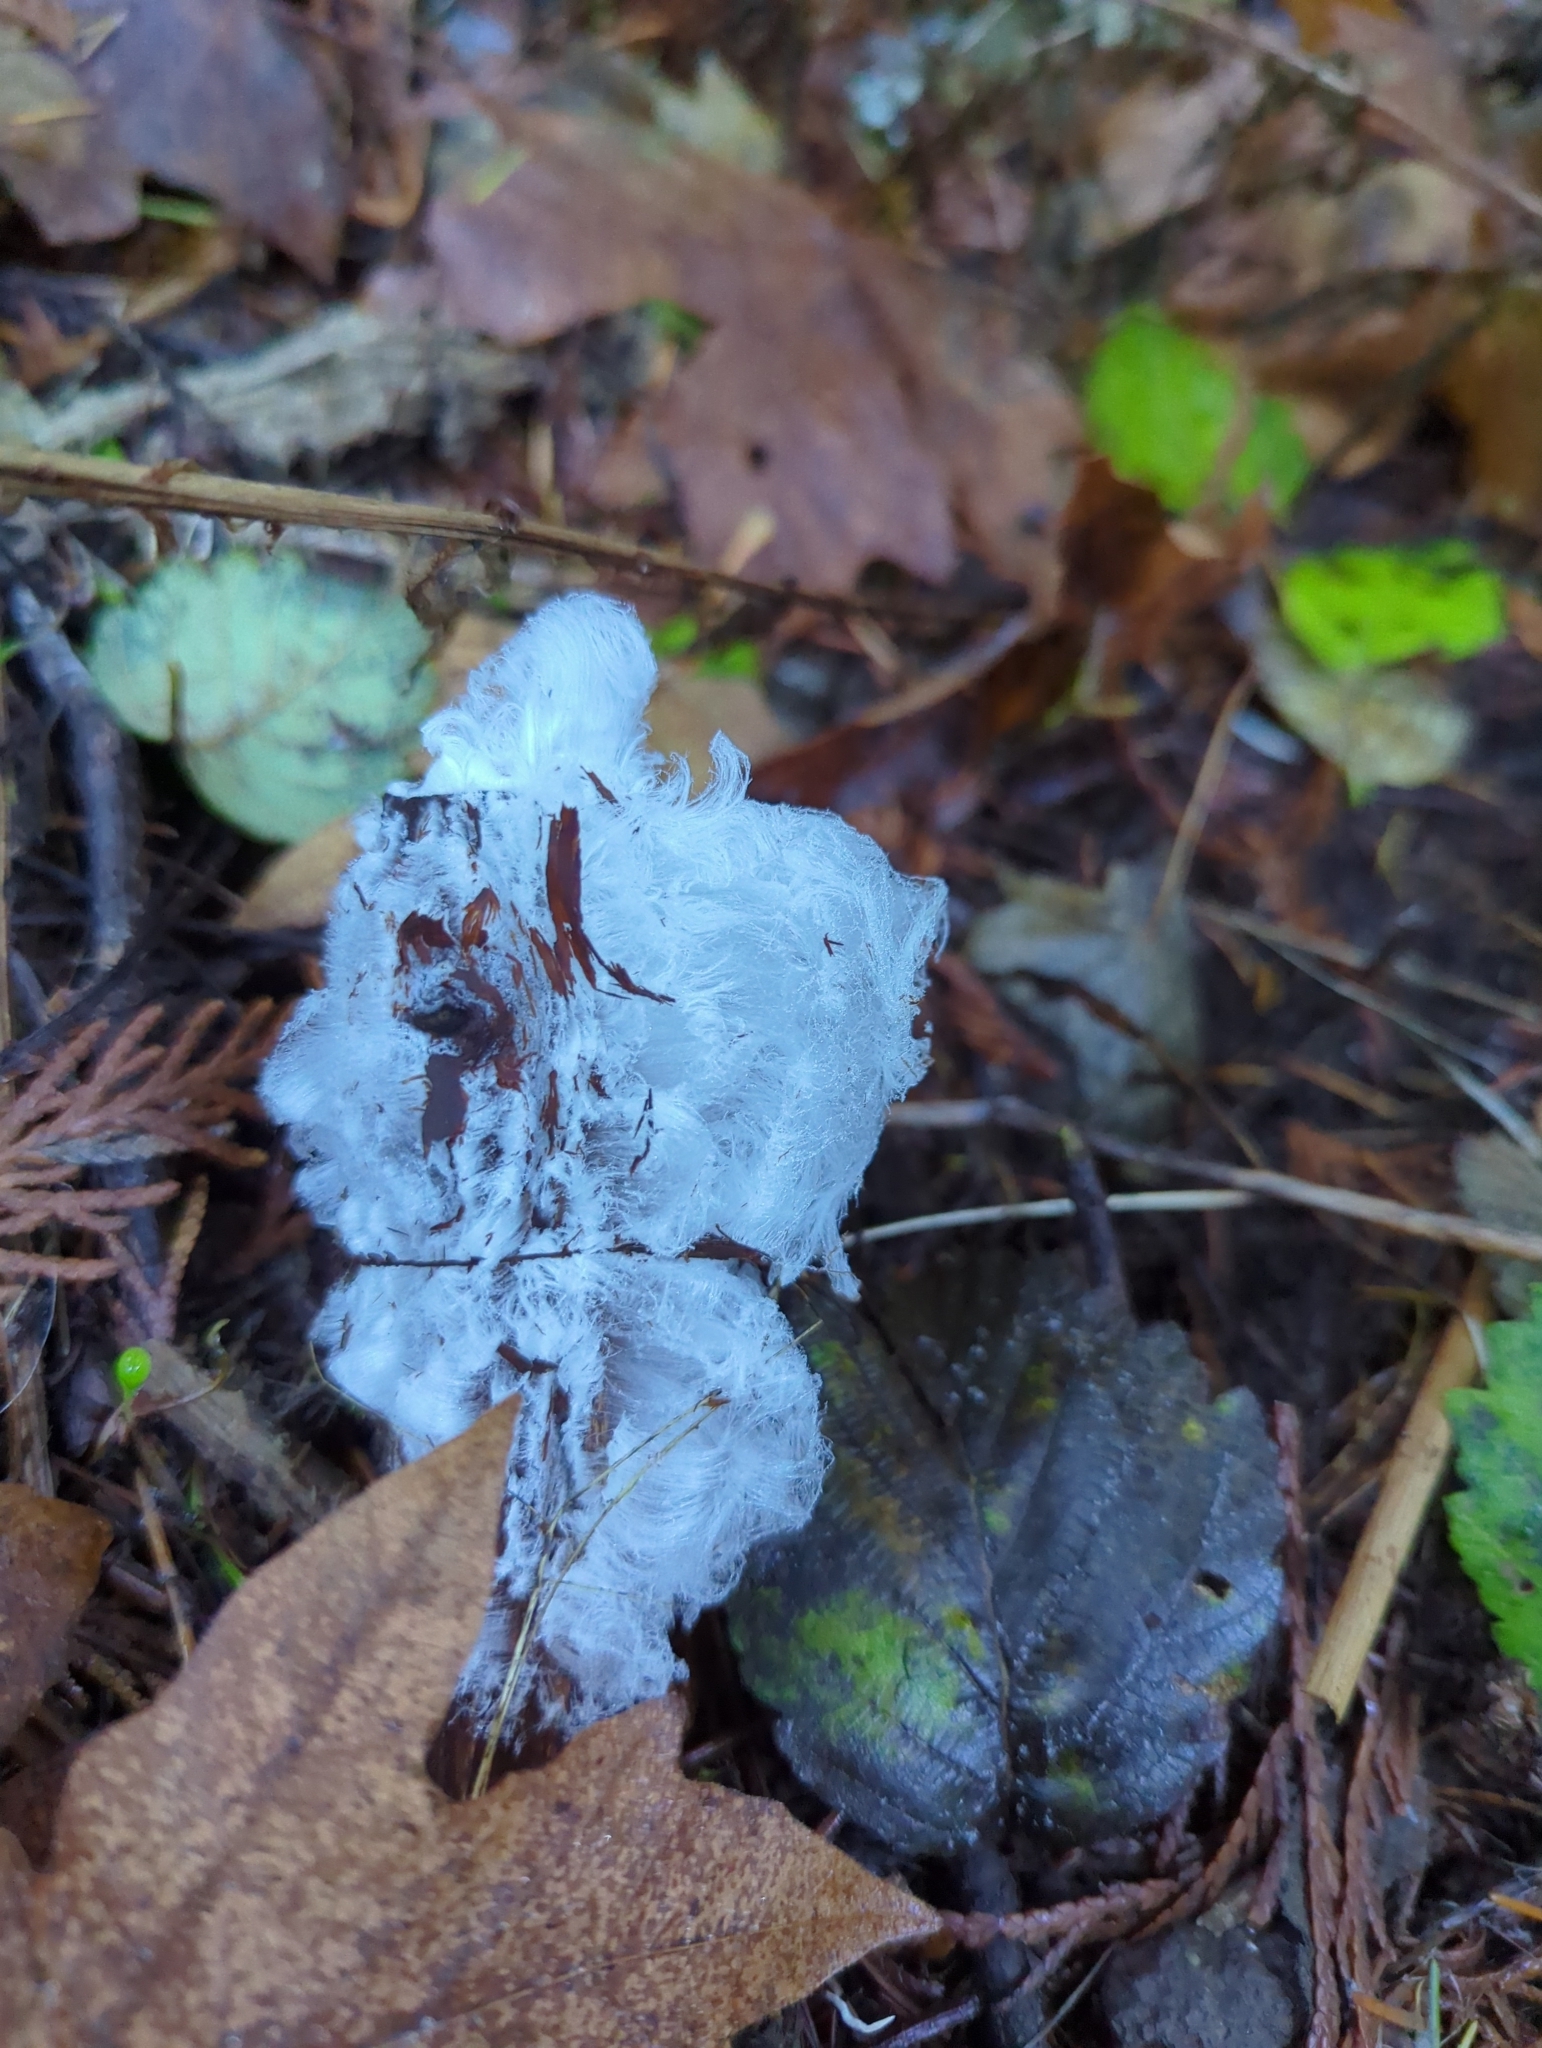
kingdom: Fungi
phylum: Basidiomycota
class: Agaricomycetes
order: Auriculariales
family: Auriculariaceae
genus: Exidiopsis
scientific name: Exidiopsis effusa
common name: Hair ice crust
